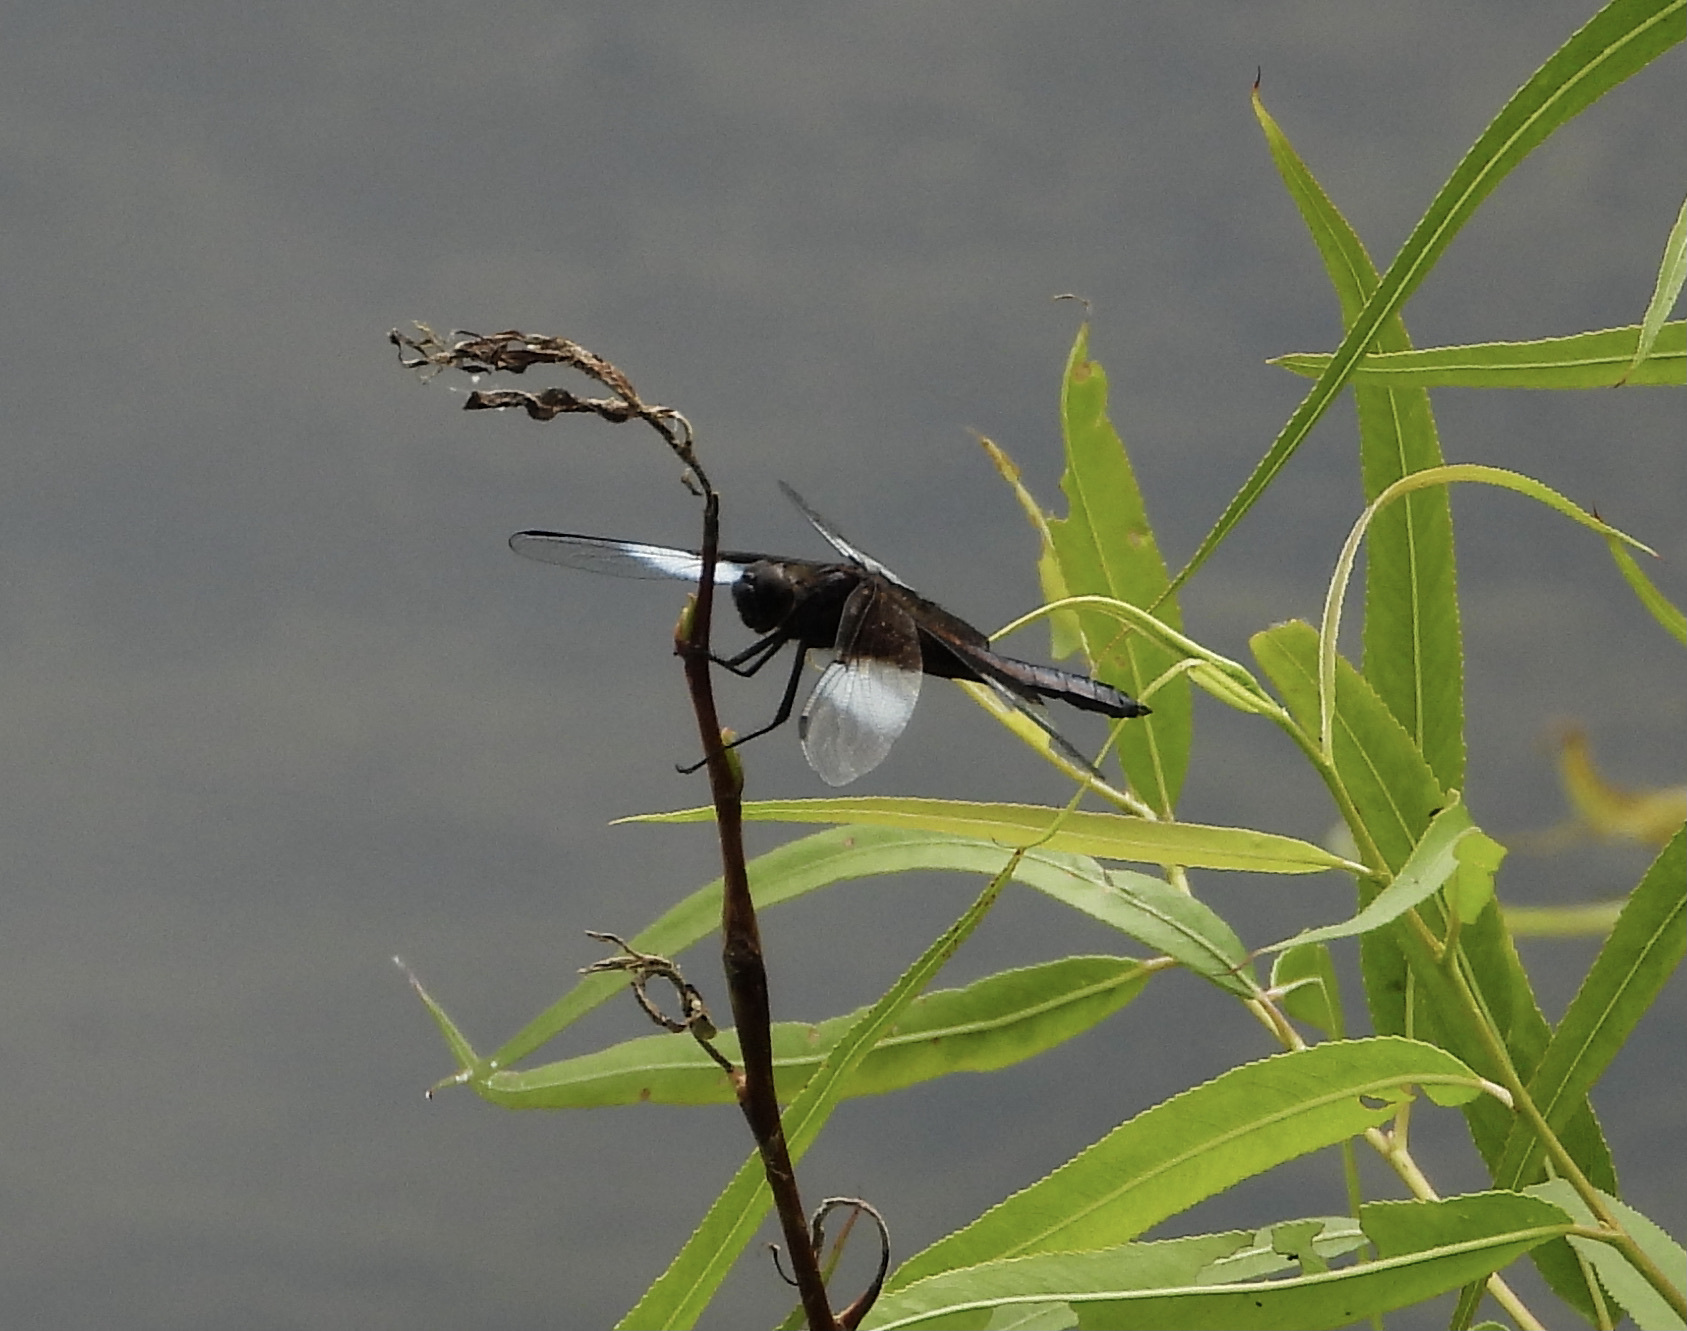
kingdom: Animalia
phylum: Arthropoda
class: Insecta
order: Odonata
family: Libellulidae
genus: Libellula
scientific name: Libellula luctuosa
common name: Widow skimmer
